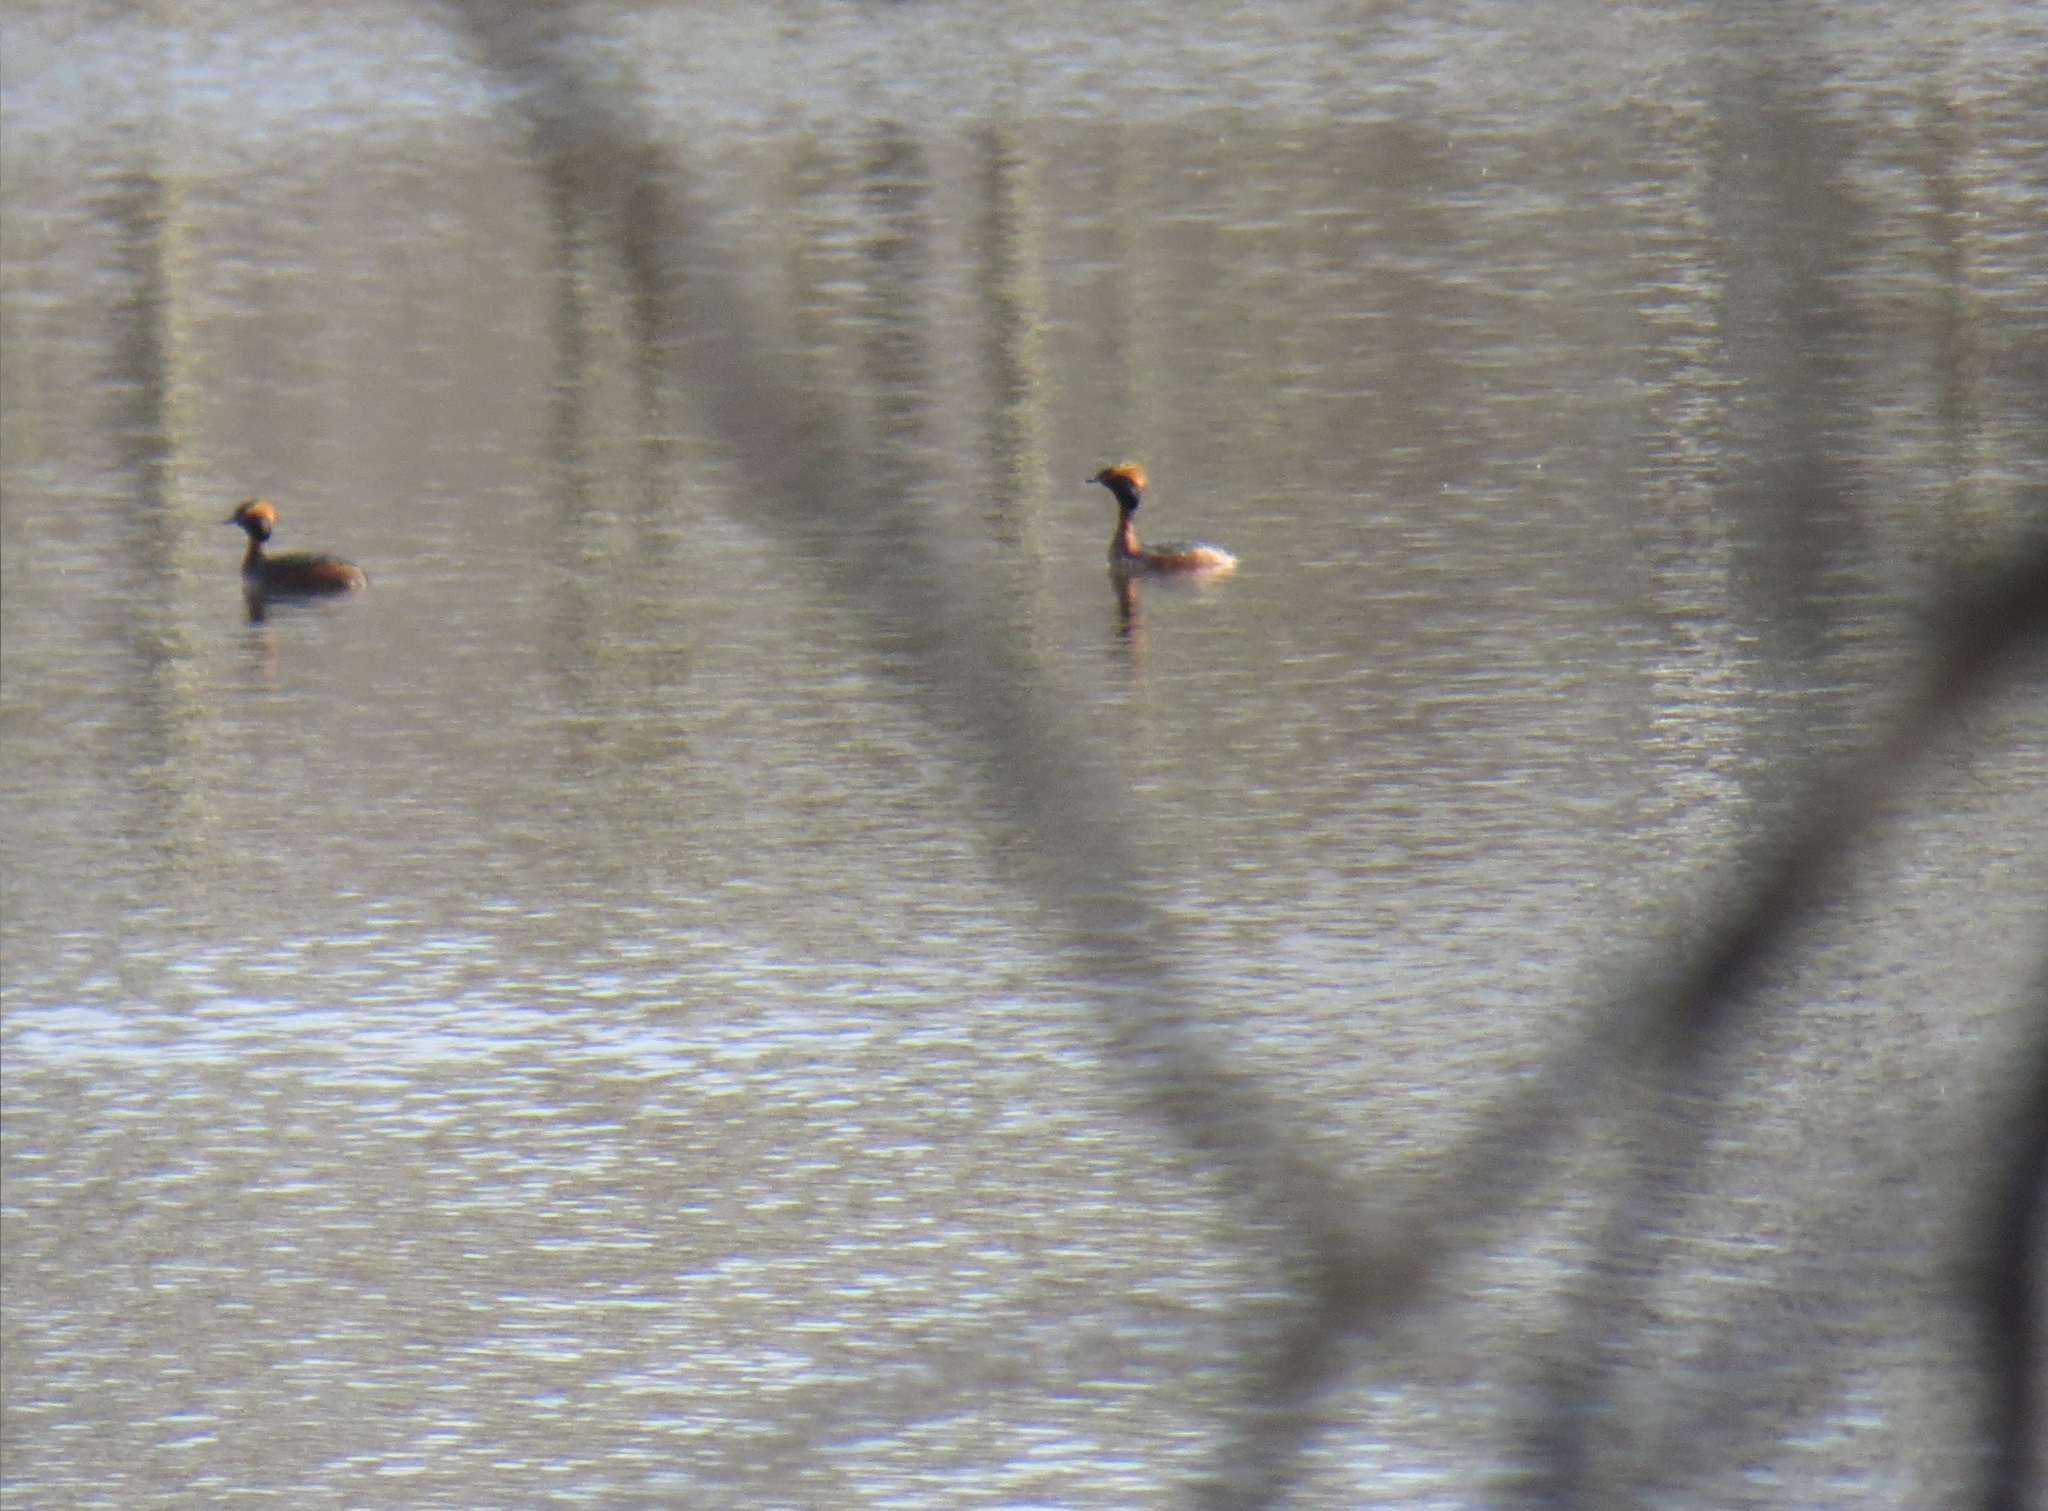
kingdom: Animalia
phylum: Chordata
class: Aves
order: Podicipediformes
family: Podicipedidae
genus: Podiceps
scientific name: Podiceps auritus
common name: Horned grebe
